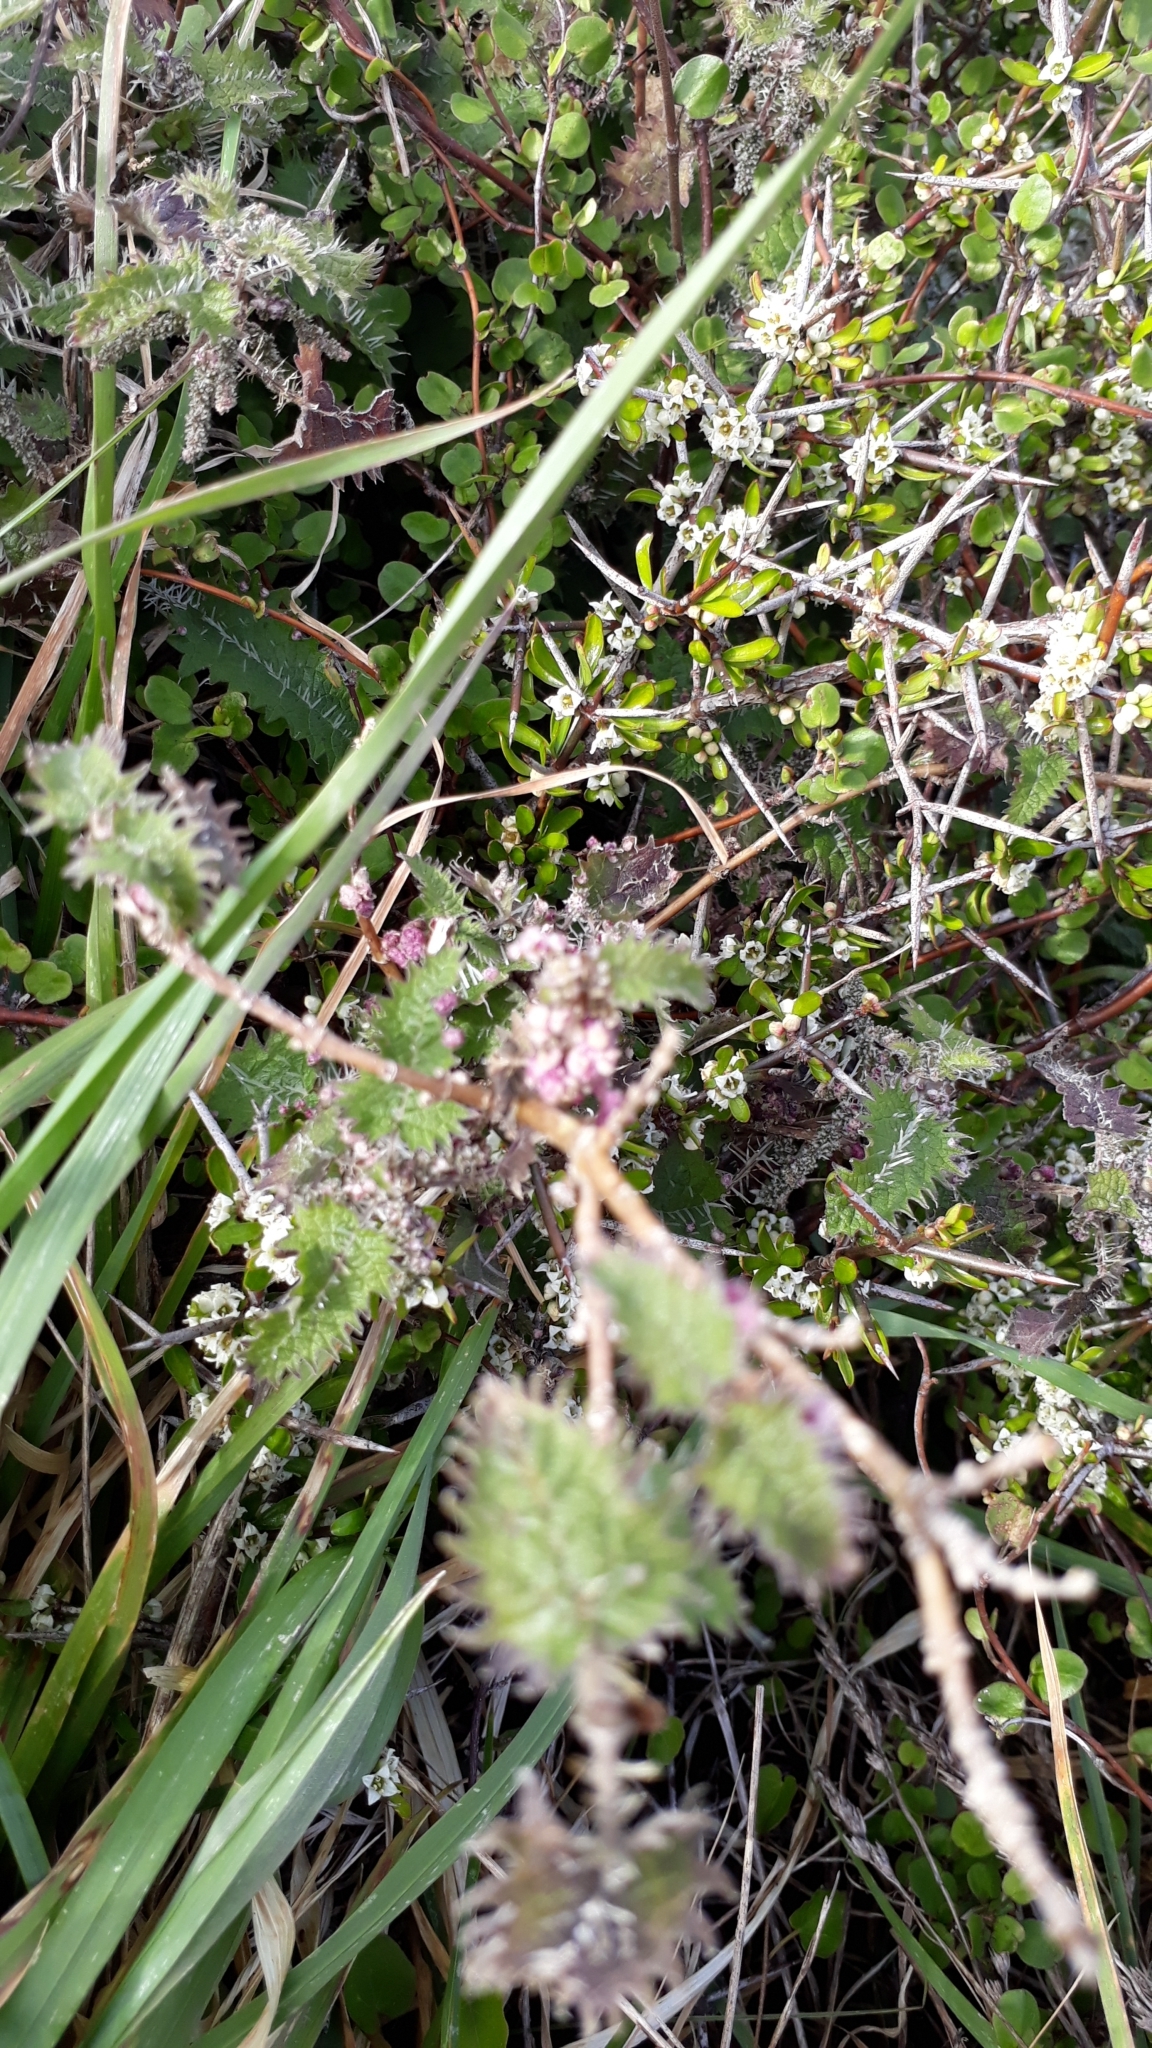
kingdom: Plantae
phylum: Tracheophyta
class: Magnoliopsida
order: Rosales
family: Urticaceae
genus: Urtica
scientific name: Urtica ferox
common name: Tree nettle
